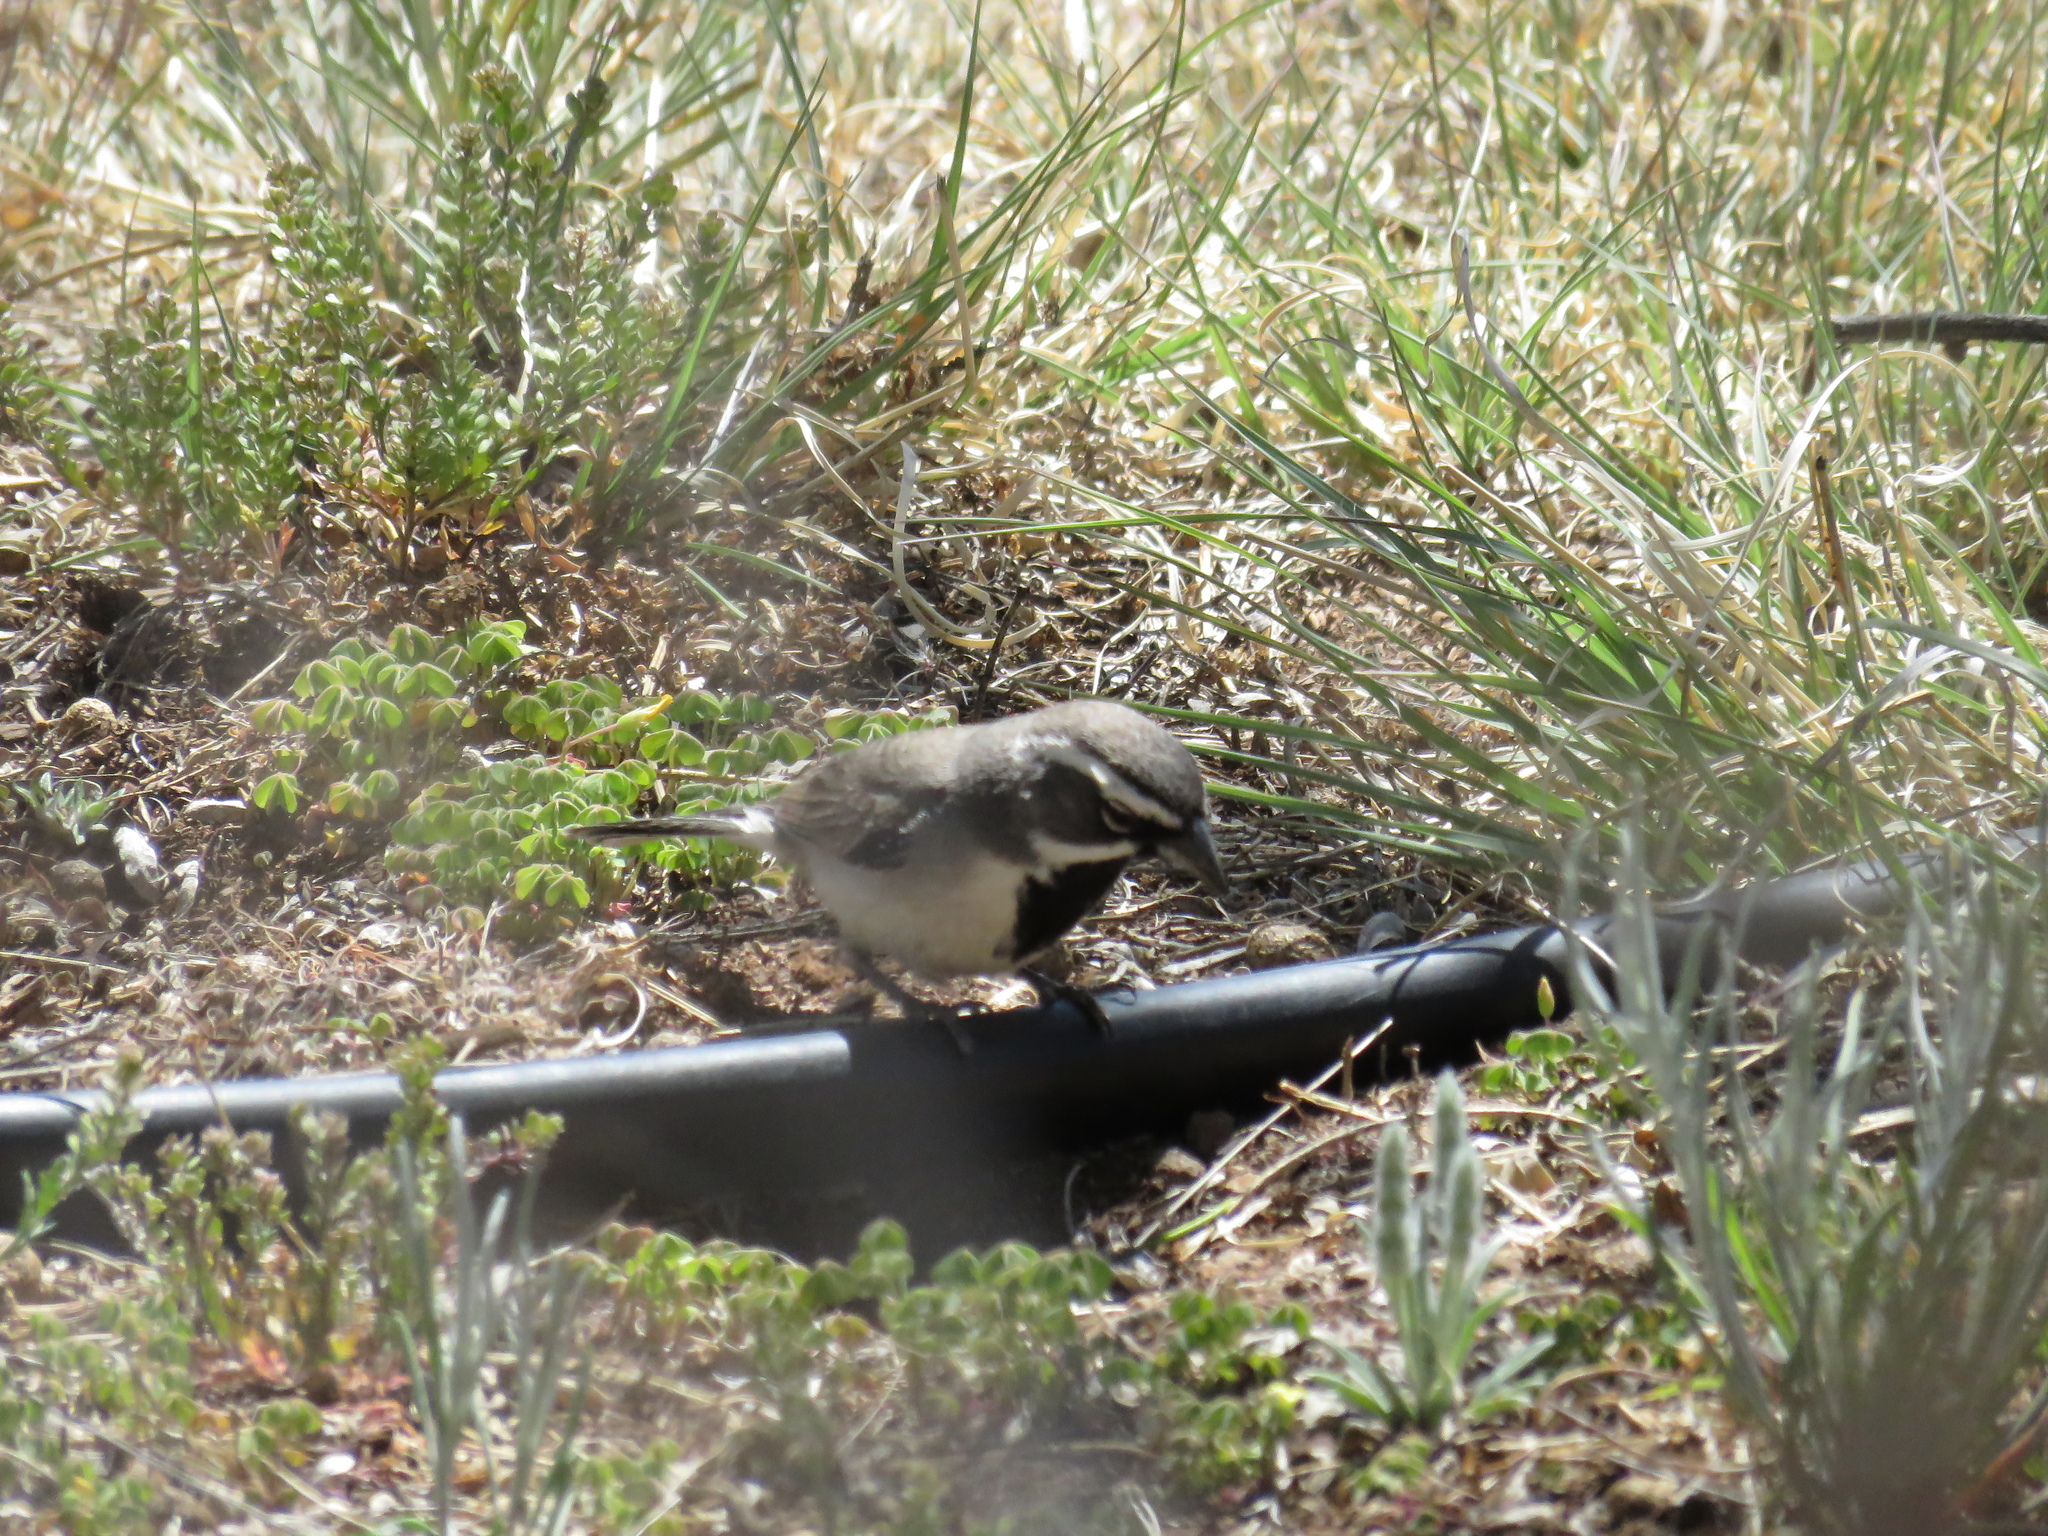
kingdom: Animalia
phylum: Chordata
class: Aves
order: Passeriformes
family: Passerellidae
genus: Amphispiza
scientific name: Amphispiza bilineata
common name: Black-throated sparrow
